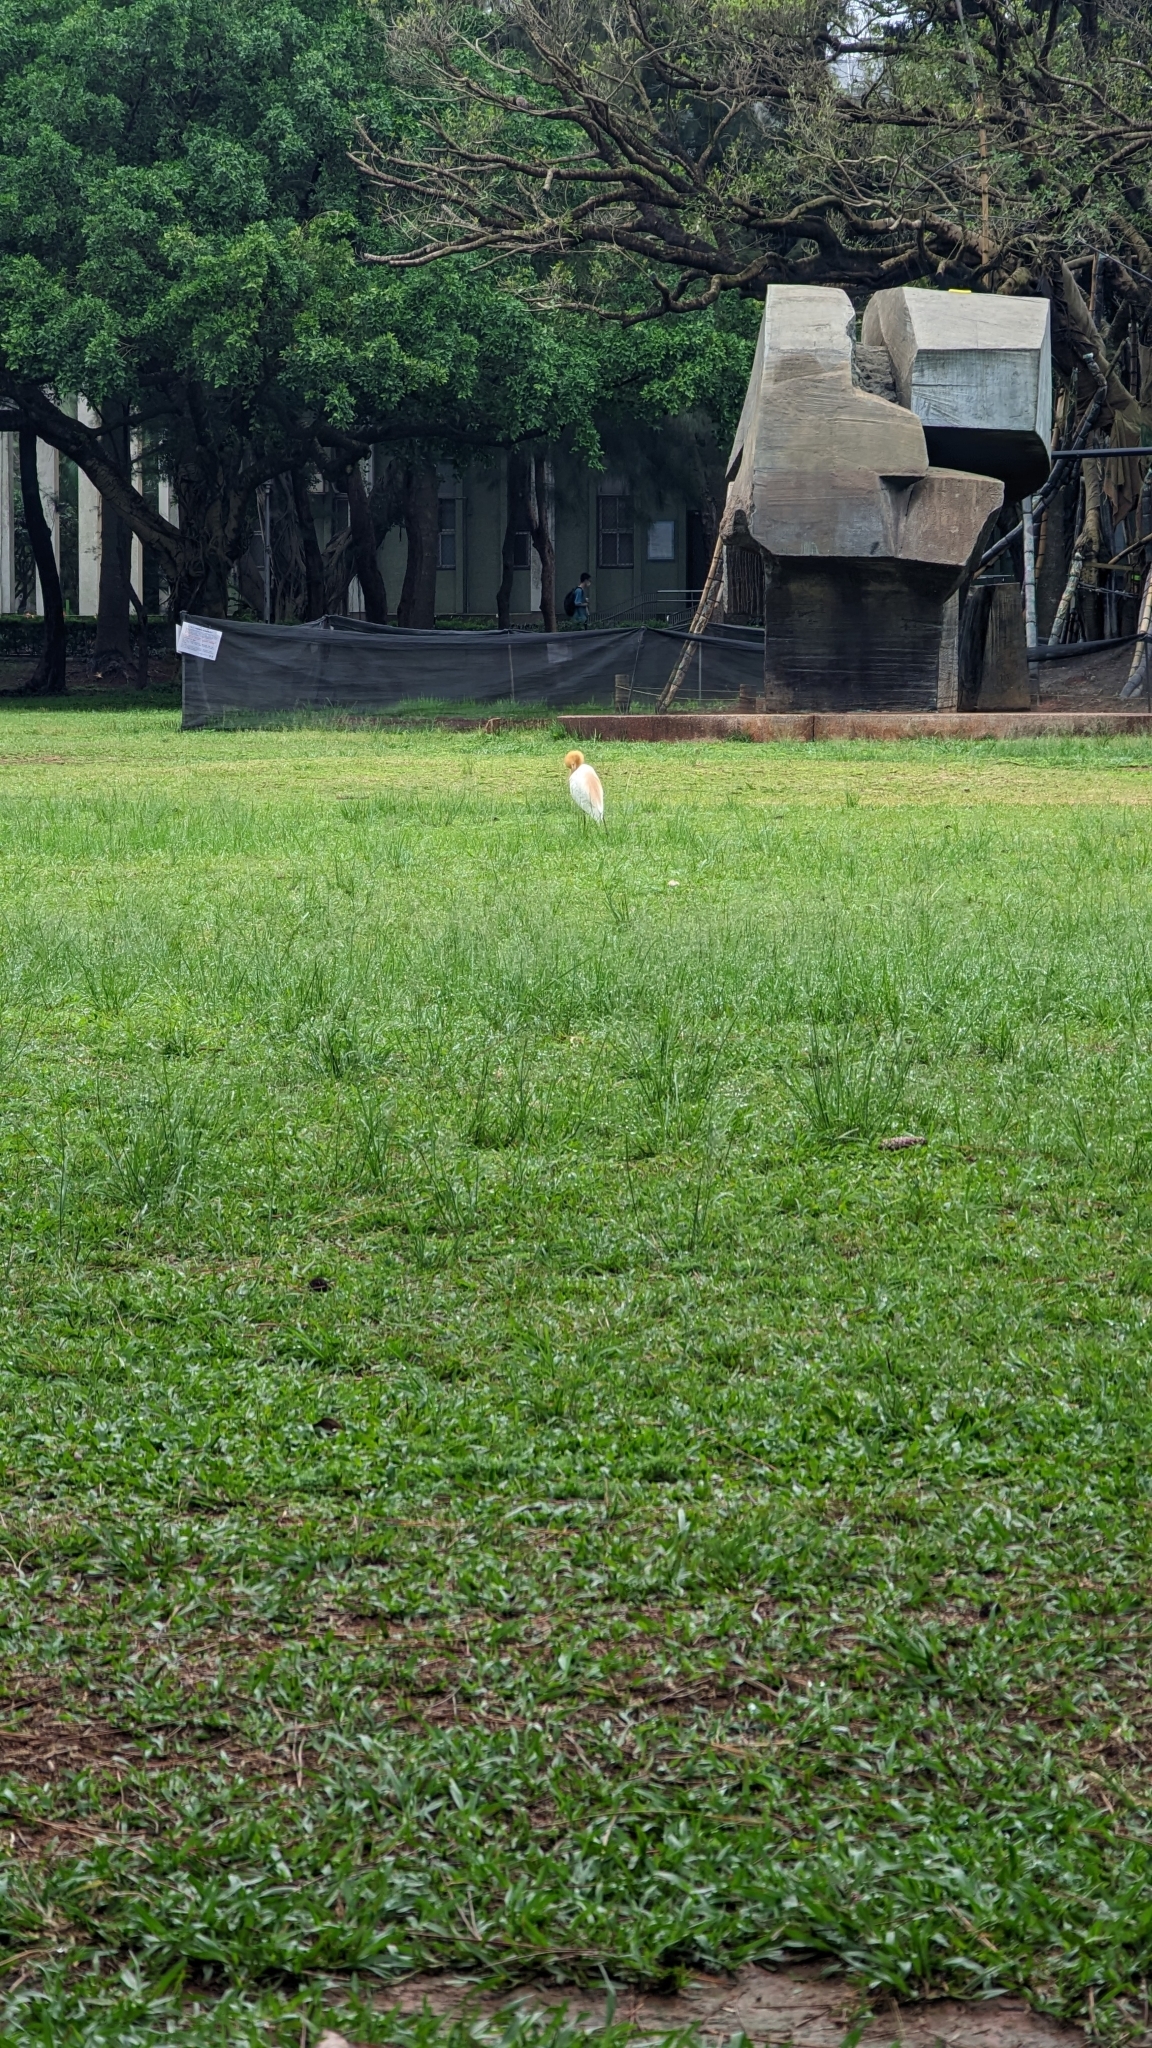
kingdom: Animalia
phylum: Chordata
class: Aves
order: Pelecaniformes
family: Ardeidae
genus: Bubulcus
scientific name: Bubulcus coromandus
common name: Eastern cattle egret
